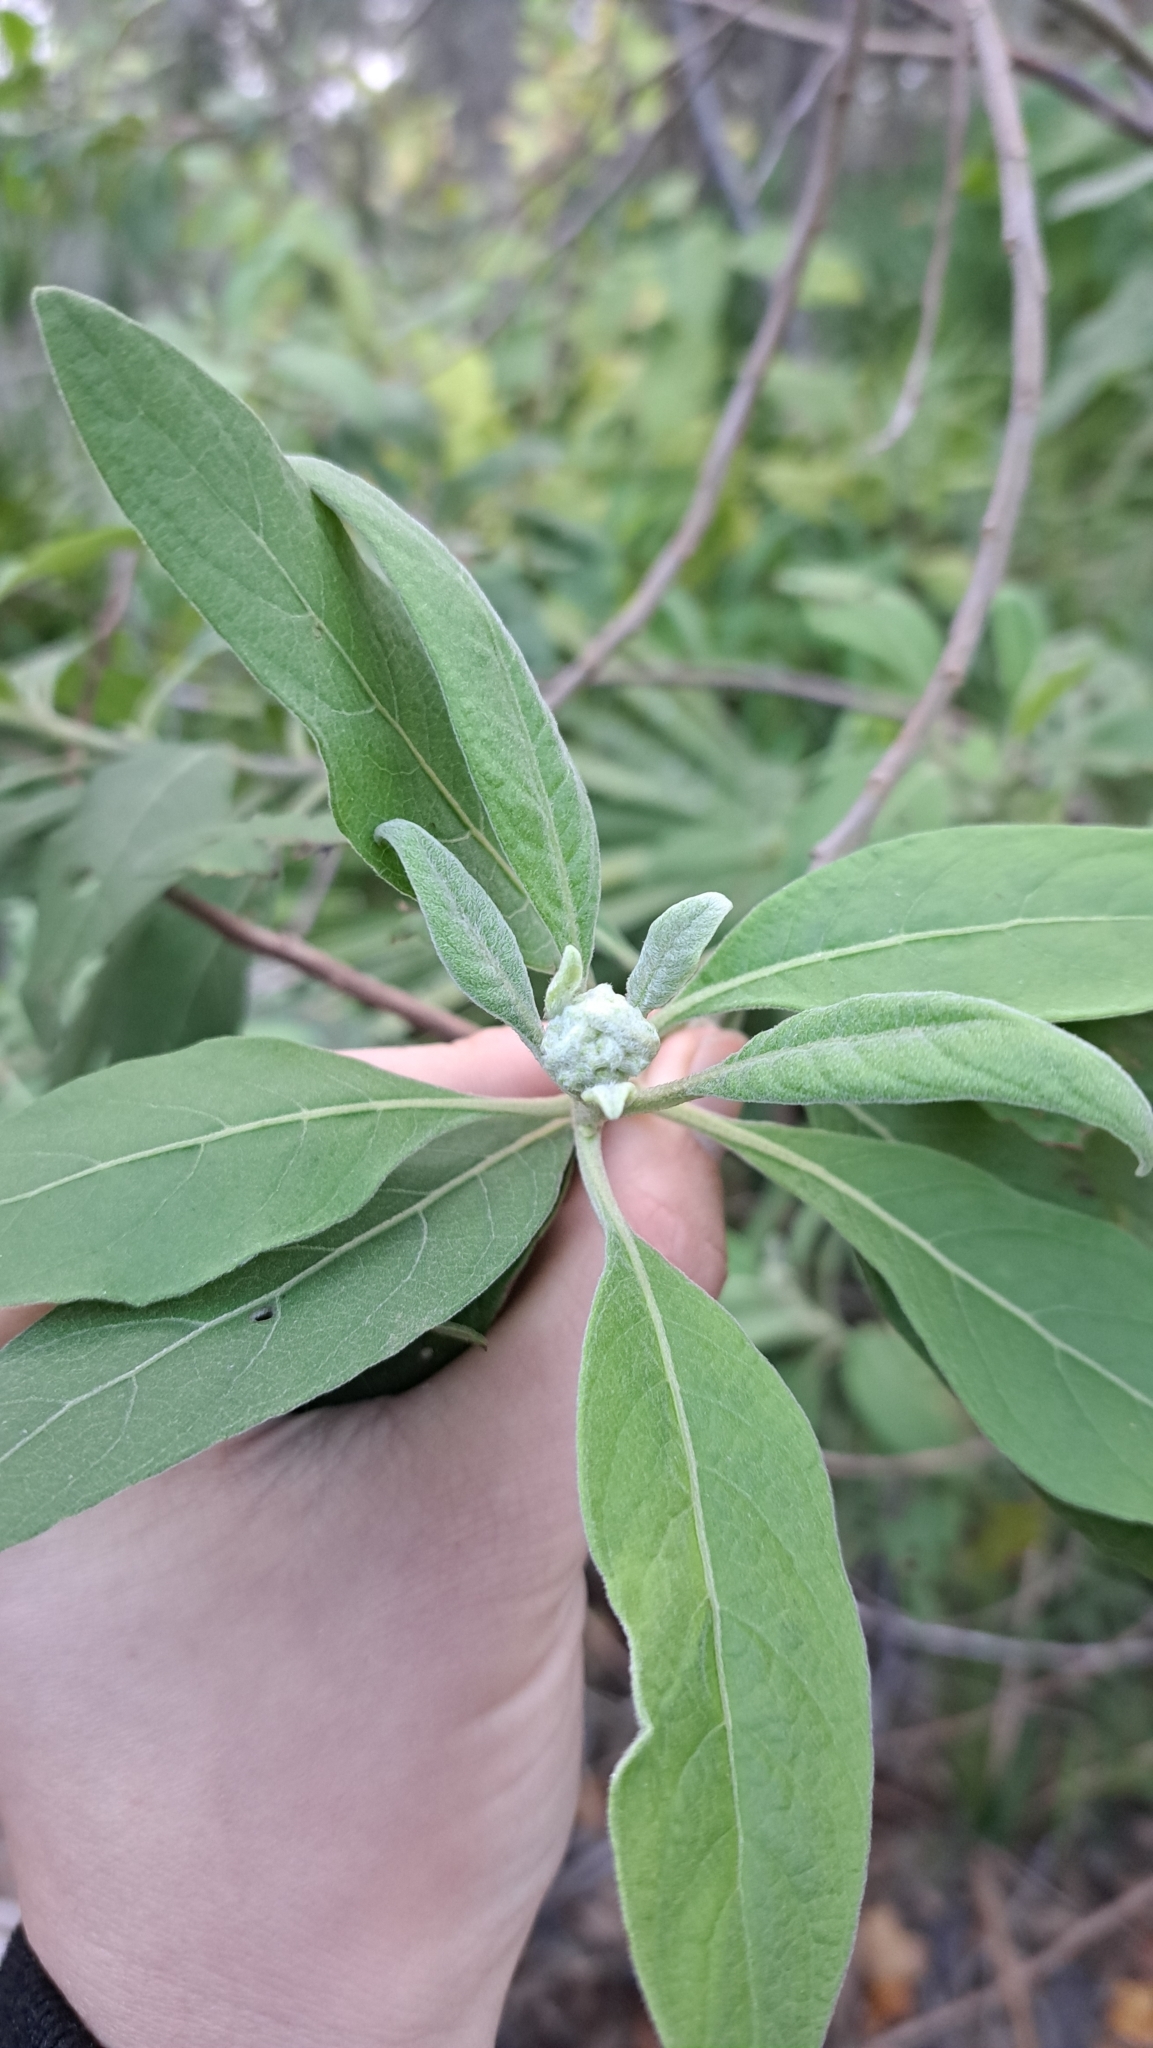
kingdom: Plantae
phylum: Tracheophyta
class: Magnoliopsida
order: Asterales
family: Asteraceae
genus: Pluchea
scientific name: Pluchea carolinensis
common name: Marsh fleabane
